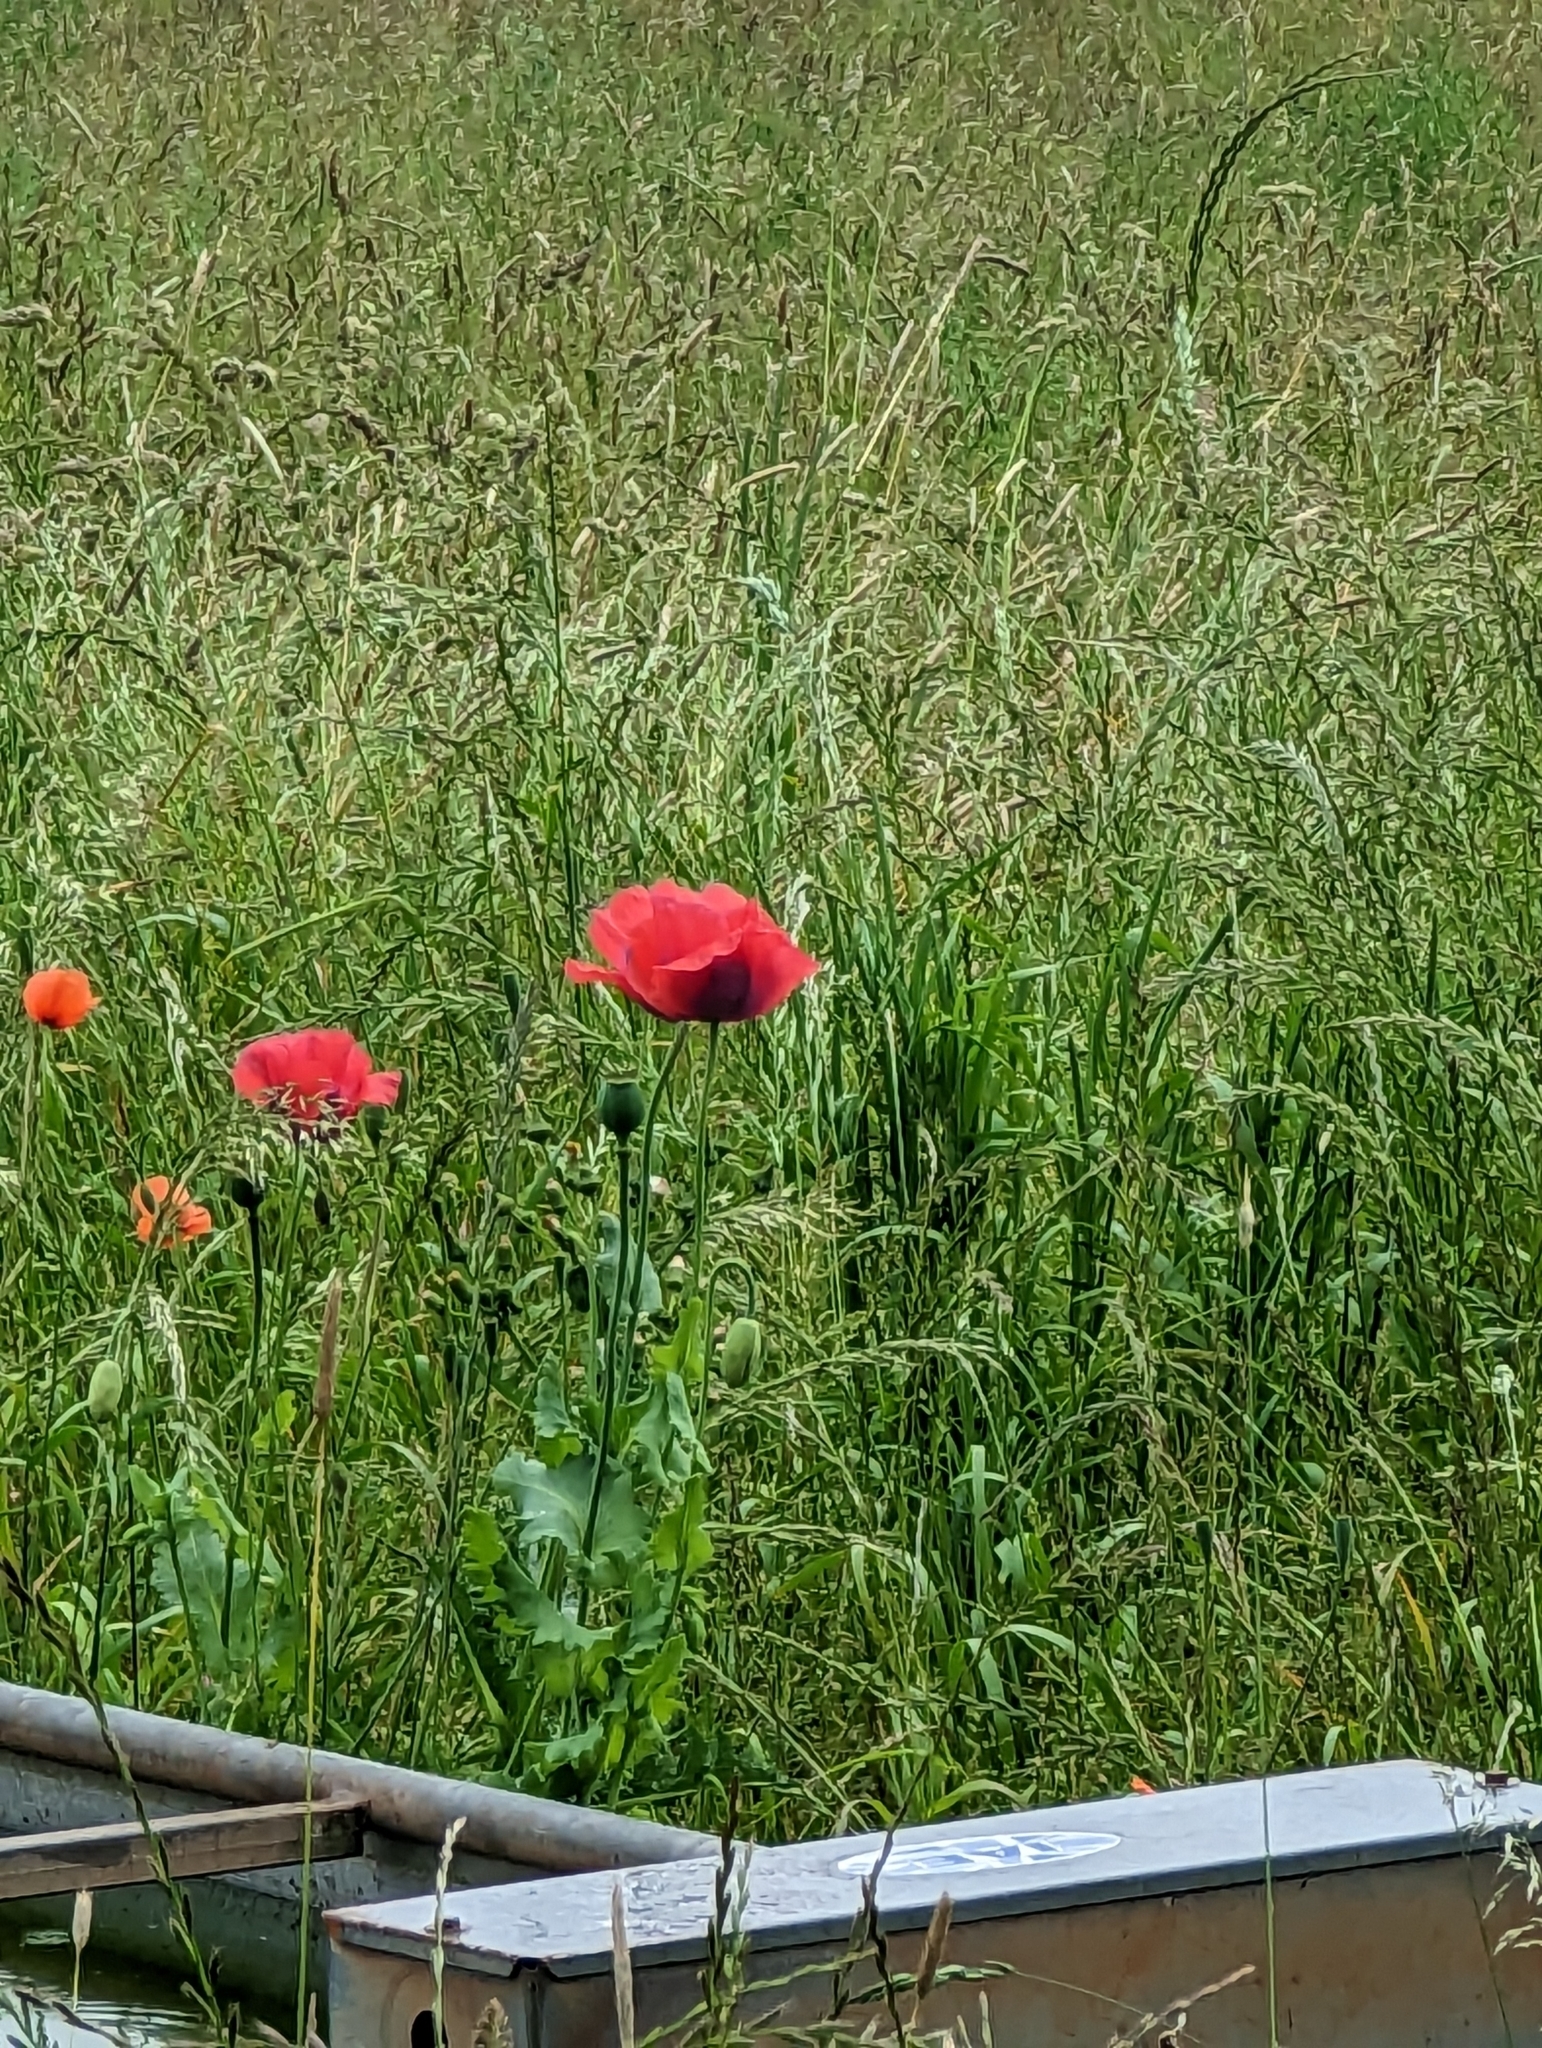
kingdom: Plantae
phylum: Tracheophyta
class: Magnoliopsida
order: Ranunculales
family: Papaveraceae
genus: Papaver
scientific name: Papaver somniferum
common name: Opium poppy
